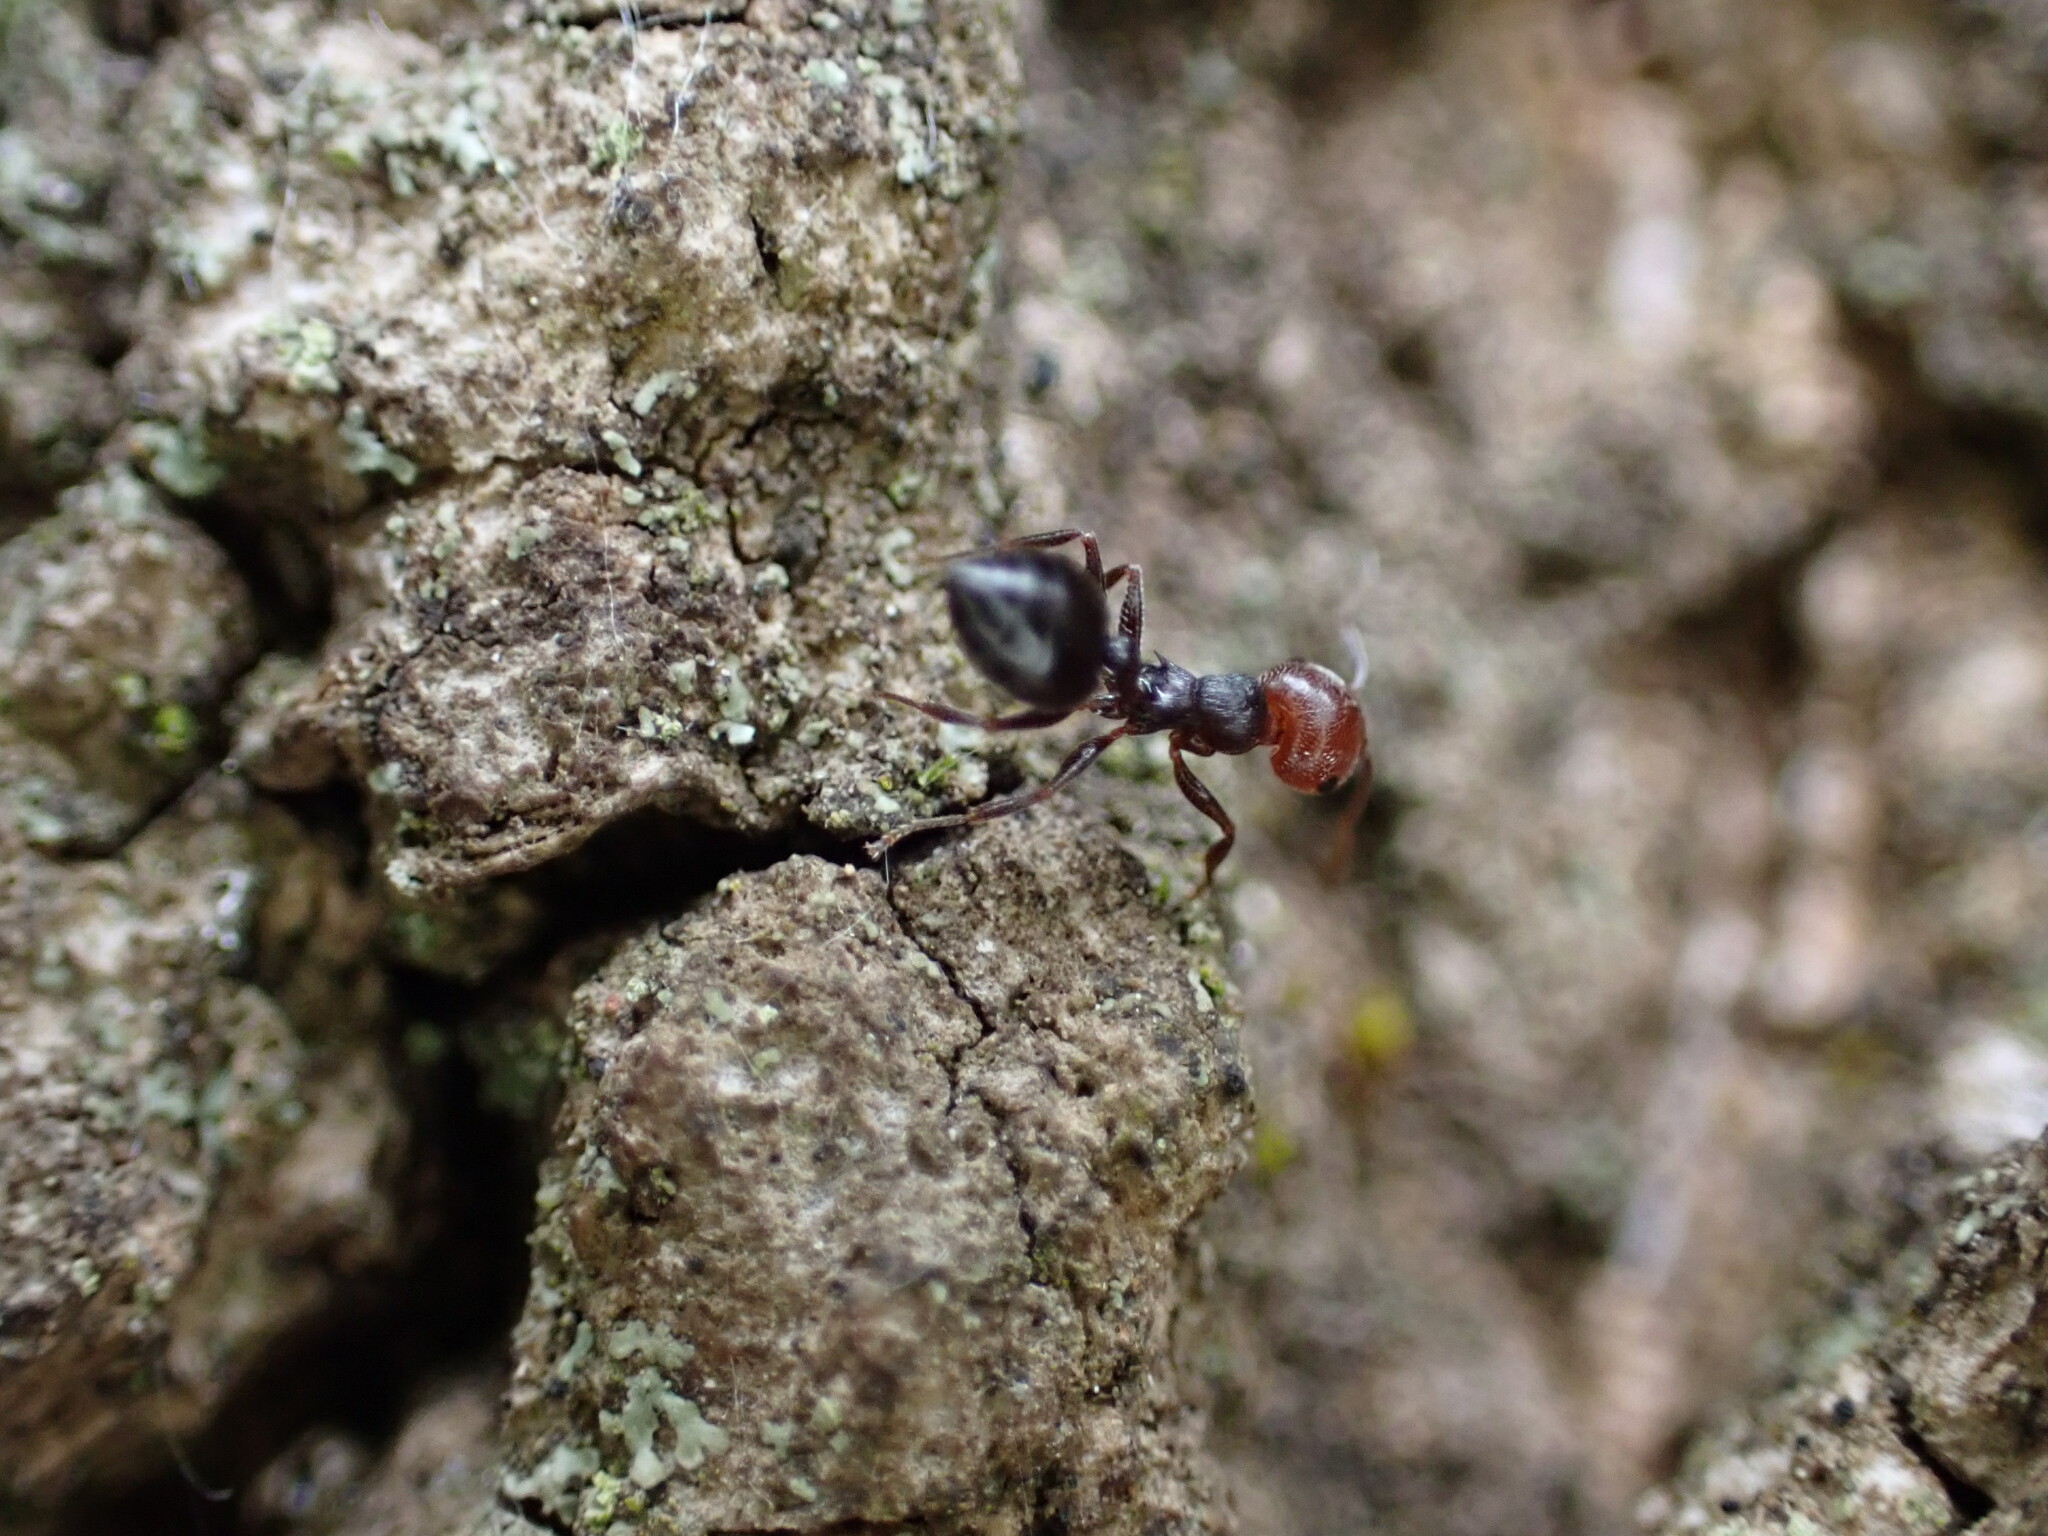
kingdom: Animalia
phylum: Arthropoda
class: Insecta
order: Hymenoptera
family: Formicidae
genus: Crematogaster
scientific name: Crematogaster scutellaris
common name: Fourmi du liège
